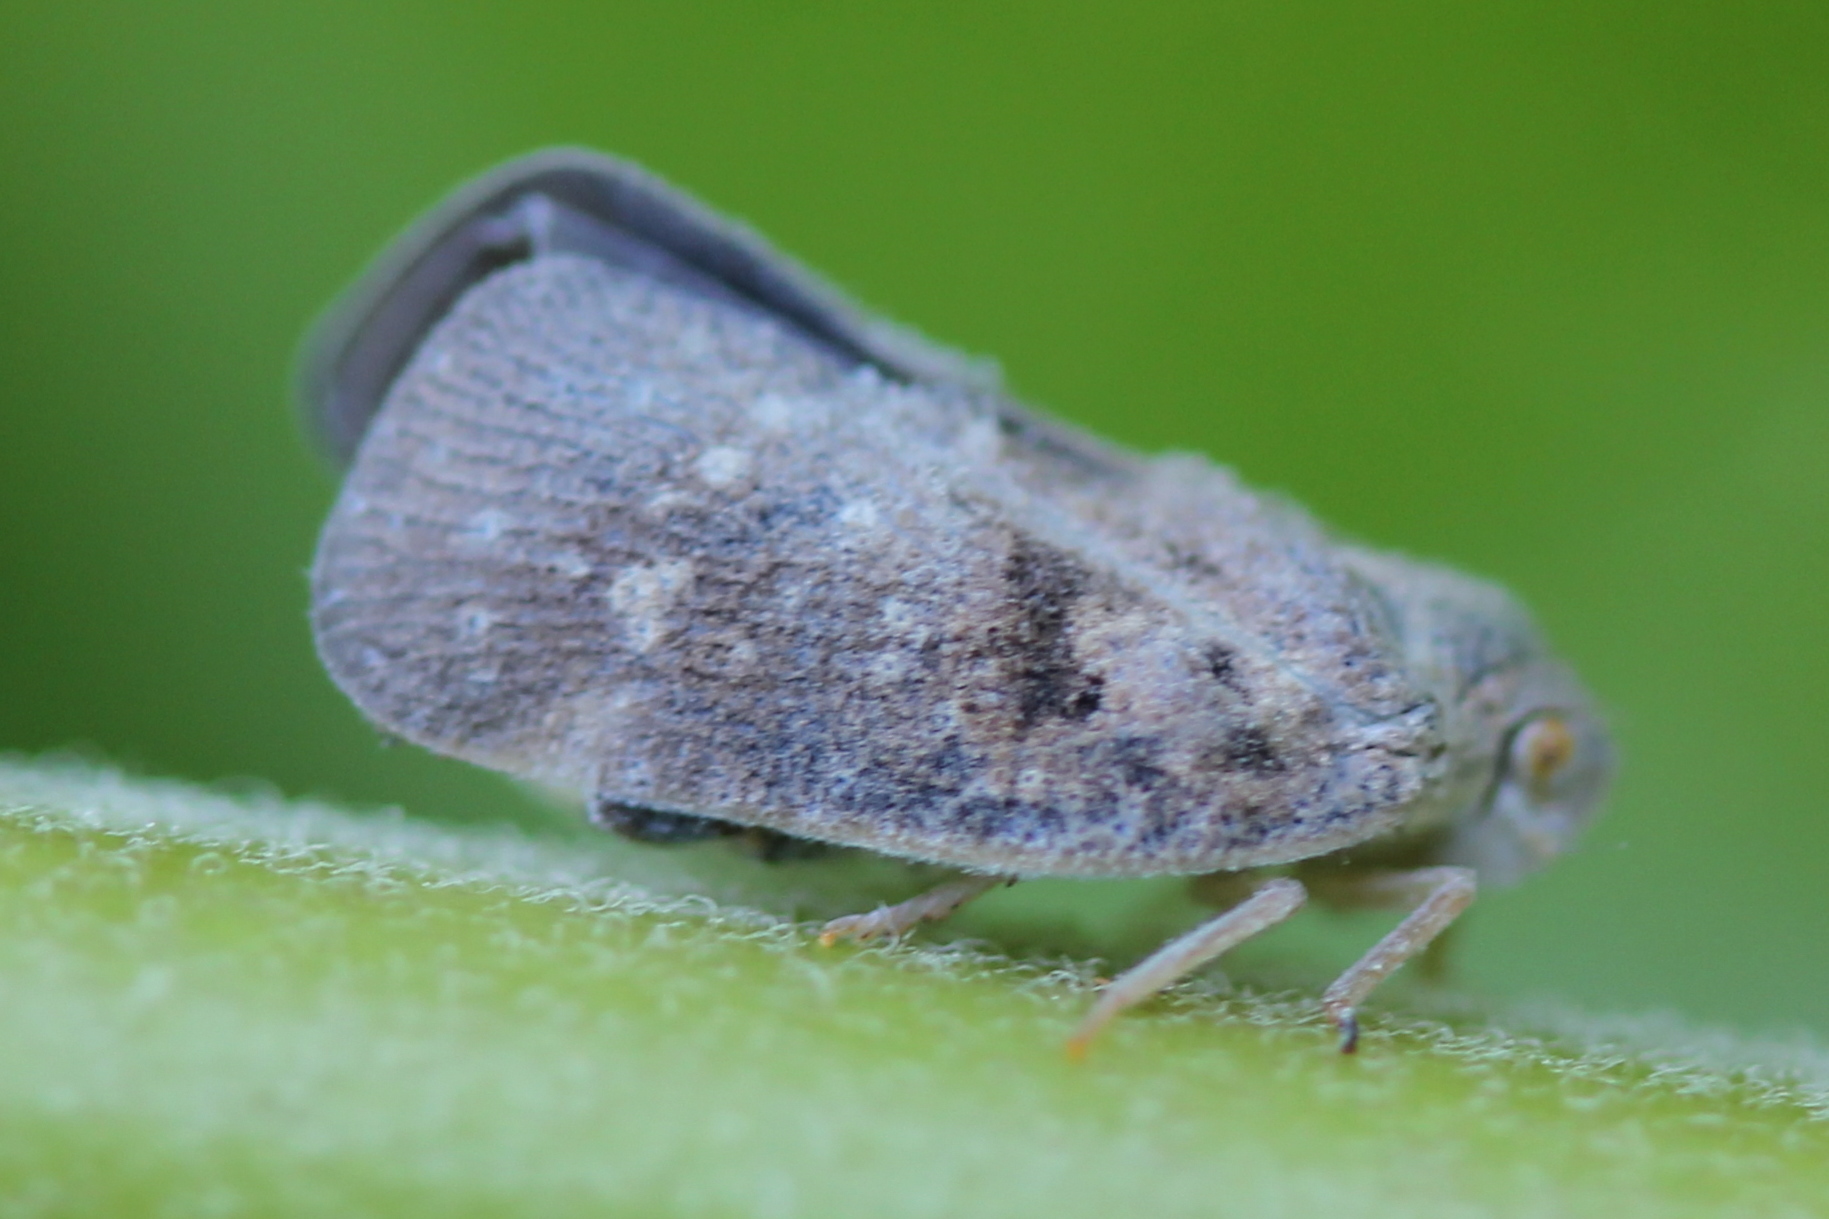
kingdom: Animalia
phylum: Arthropoda
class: Insecta
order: Hemiptera
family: Flatidae
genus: Metcalfa
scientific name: Metcalfa pruinosa
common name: Citrus flatid planthopper
